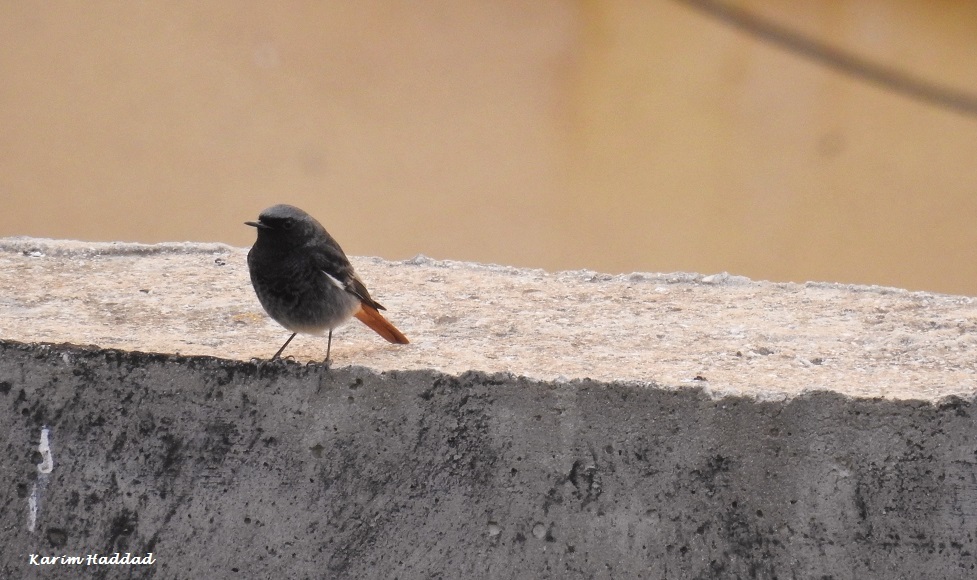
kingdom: Animalia
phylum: Chordata
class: Aves
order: Passeriformes
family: Muscicapidae
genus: Phoenicurus
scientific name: Phoenicurus ochruros
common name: Black redstart
